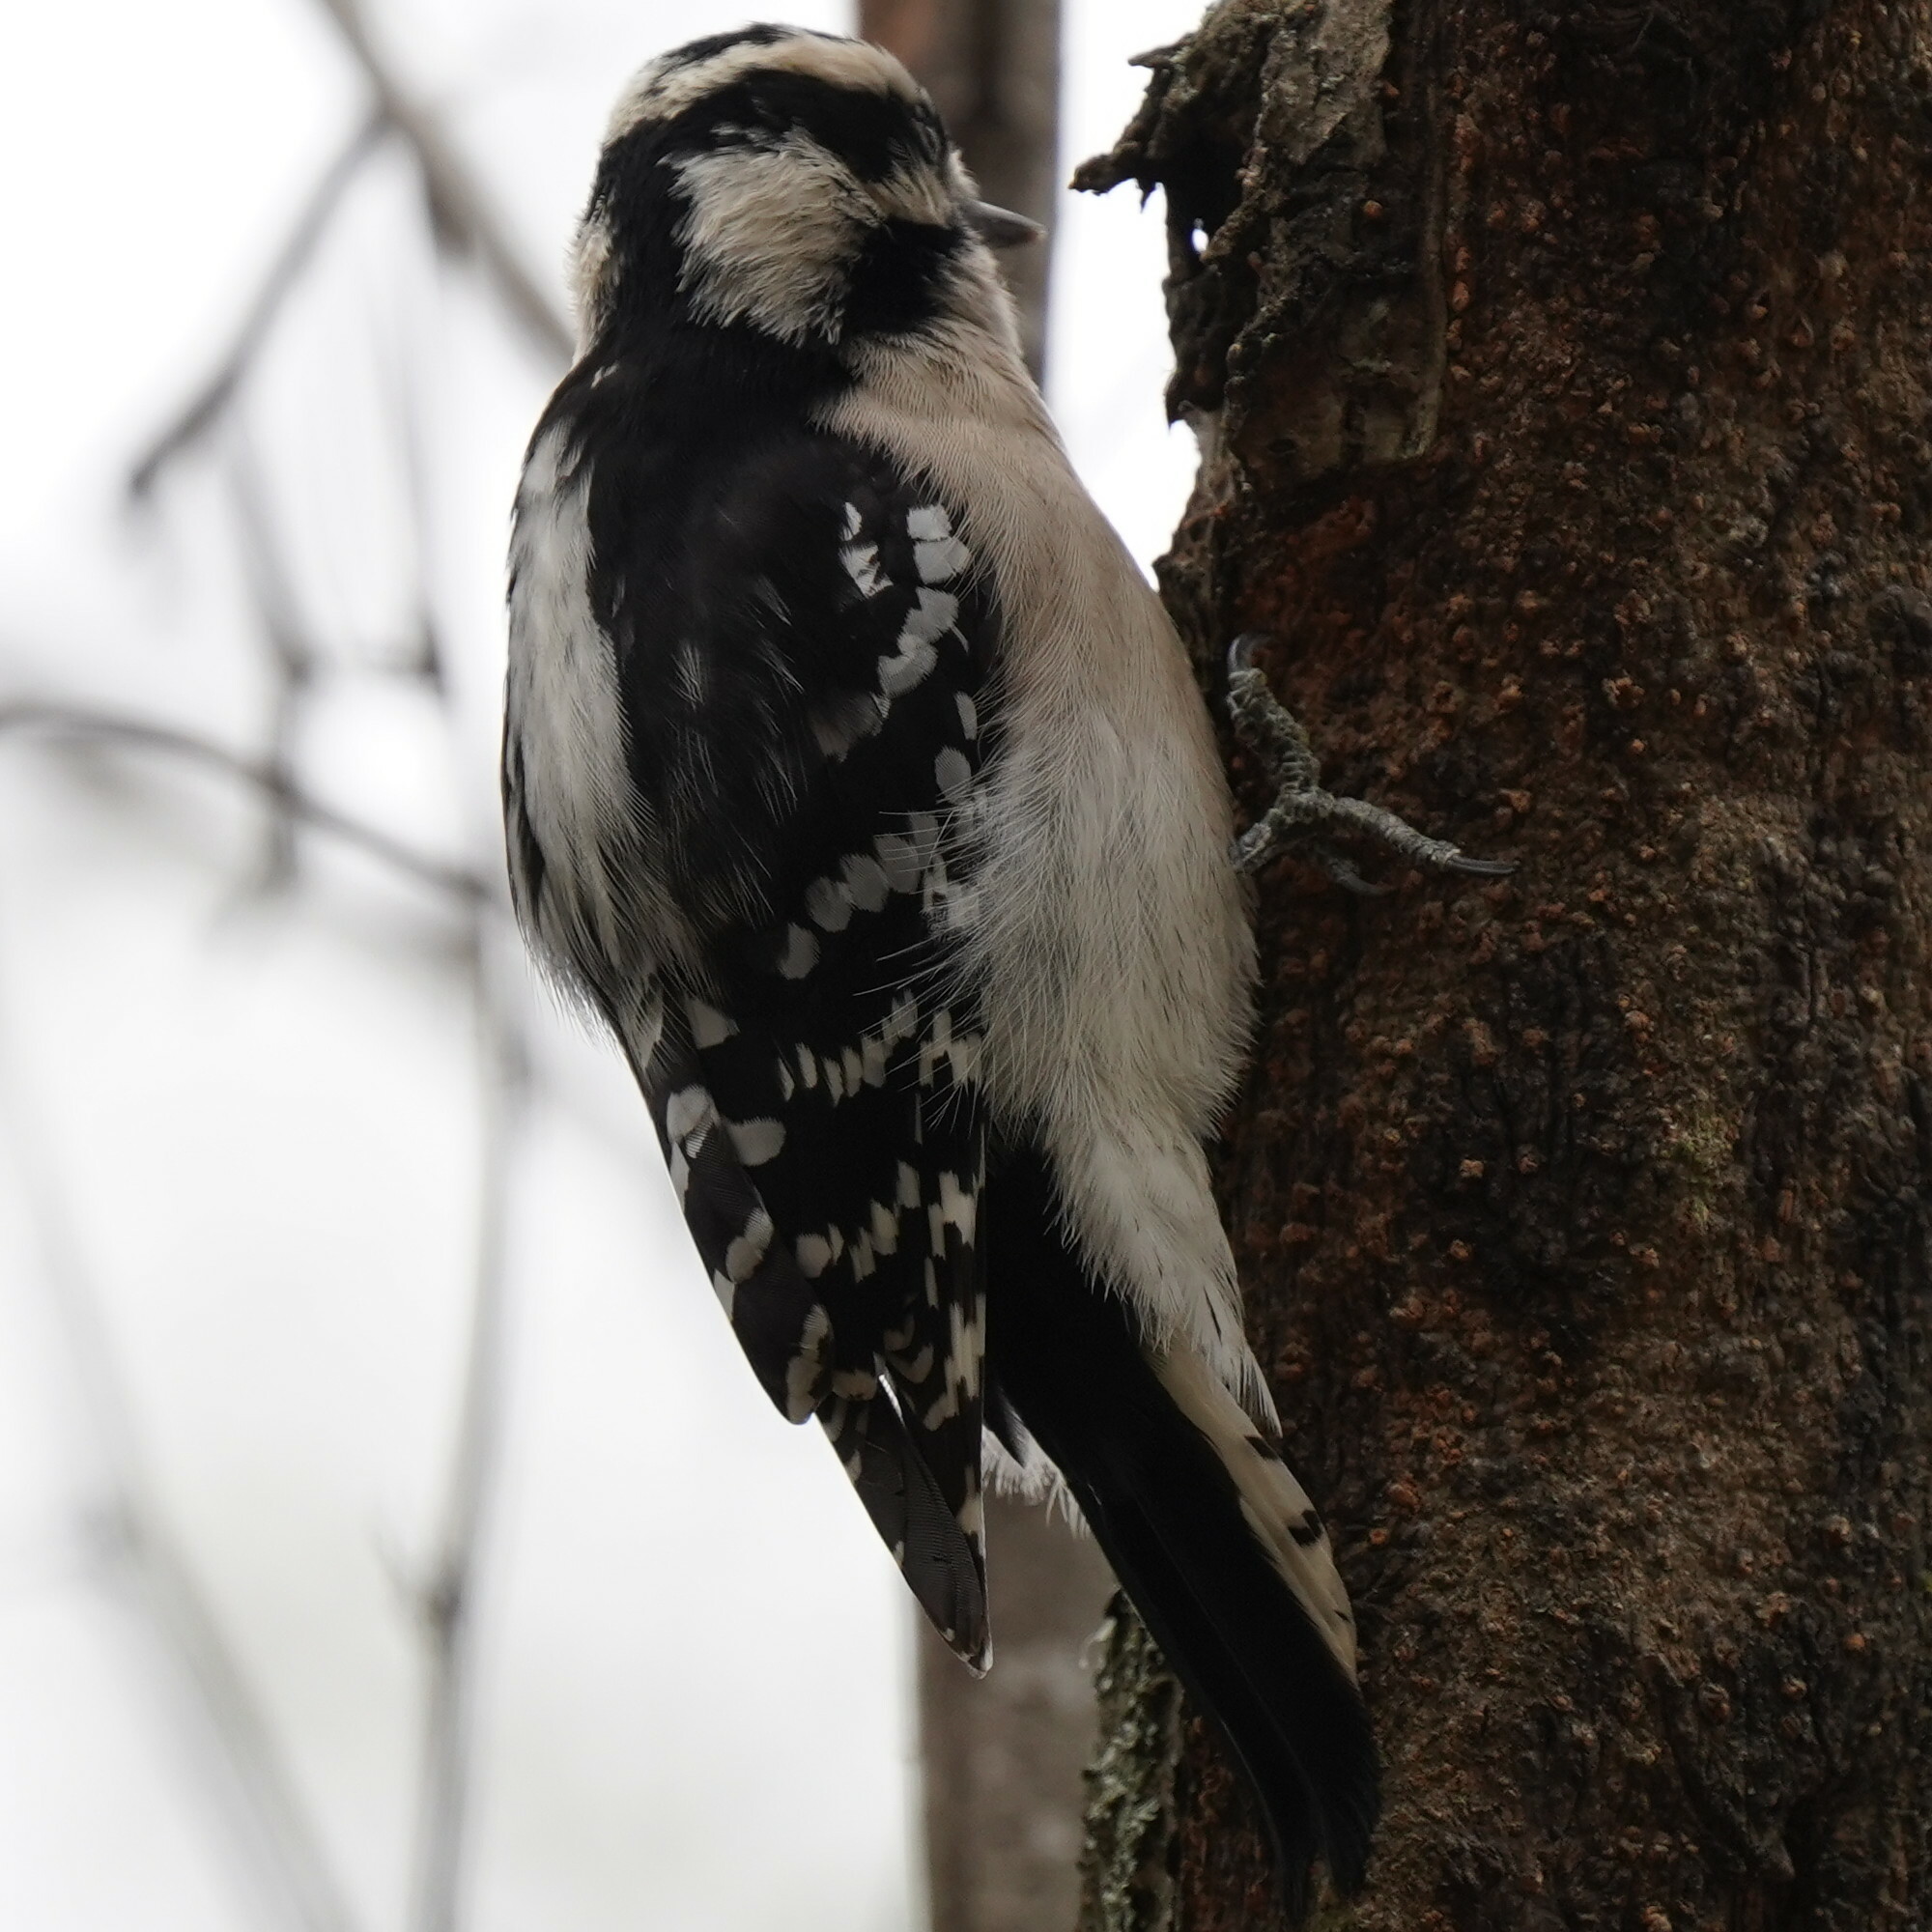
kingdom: Animalia
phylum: Chordata
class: Aves
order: Piciformes
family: Picidae
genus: Dryobates
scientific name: Dryobates pubescens
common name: Downy woodpecker
